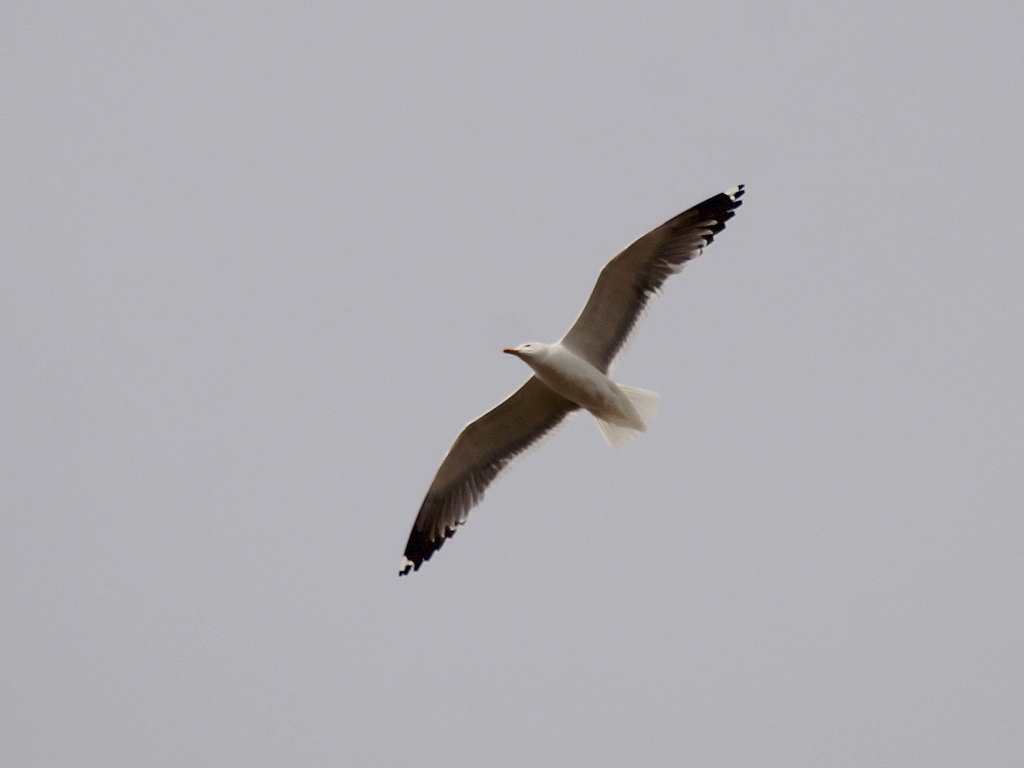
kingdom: Animalia
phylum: Chordata
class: Aves
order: Charadriiformes
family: Laridae
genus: Larus
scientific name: Larus fuscus
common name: Lesser black-backed gull
